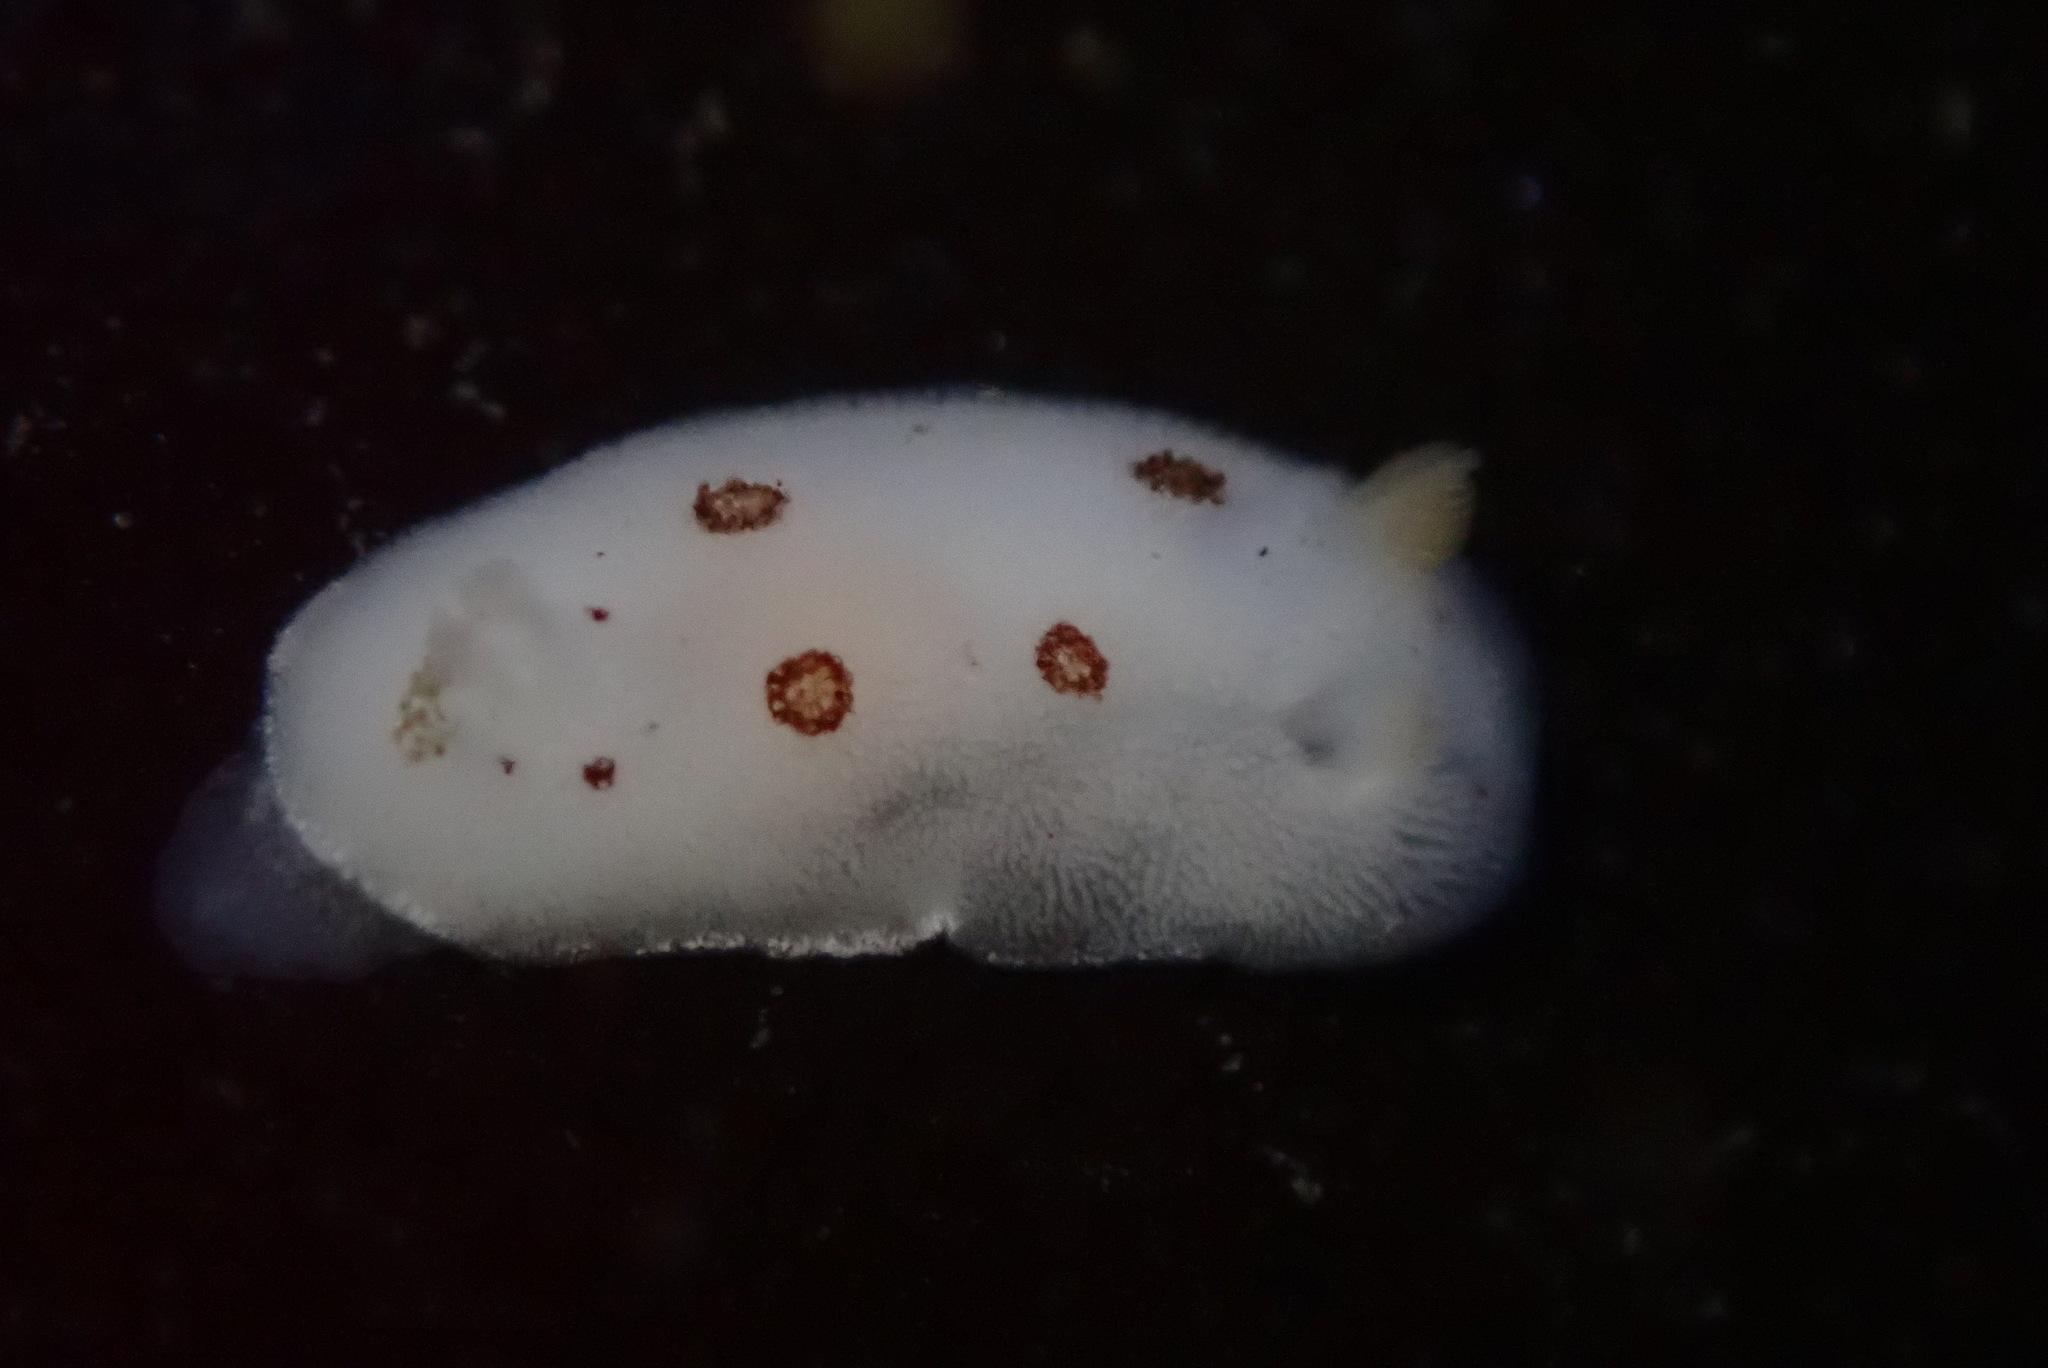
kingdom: Animalia
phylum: Mollusca
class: Gastropoda
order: Nudibranchia
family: Discodorididae
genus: Diaulula
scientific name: Diaulula sandiegensis
